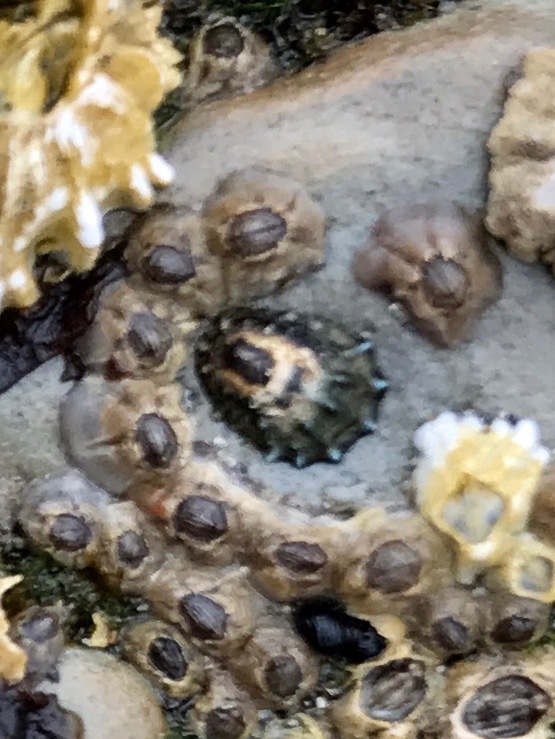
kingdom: Animalia
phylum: Mollusca
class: Gastropoda
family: Lottiidae
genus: Lottia
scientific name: Lottia scabra
